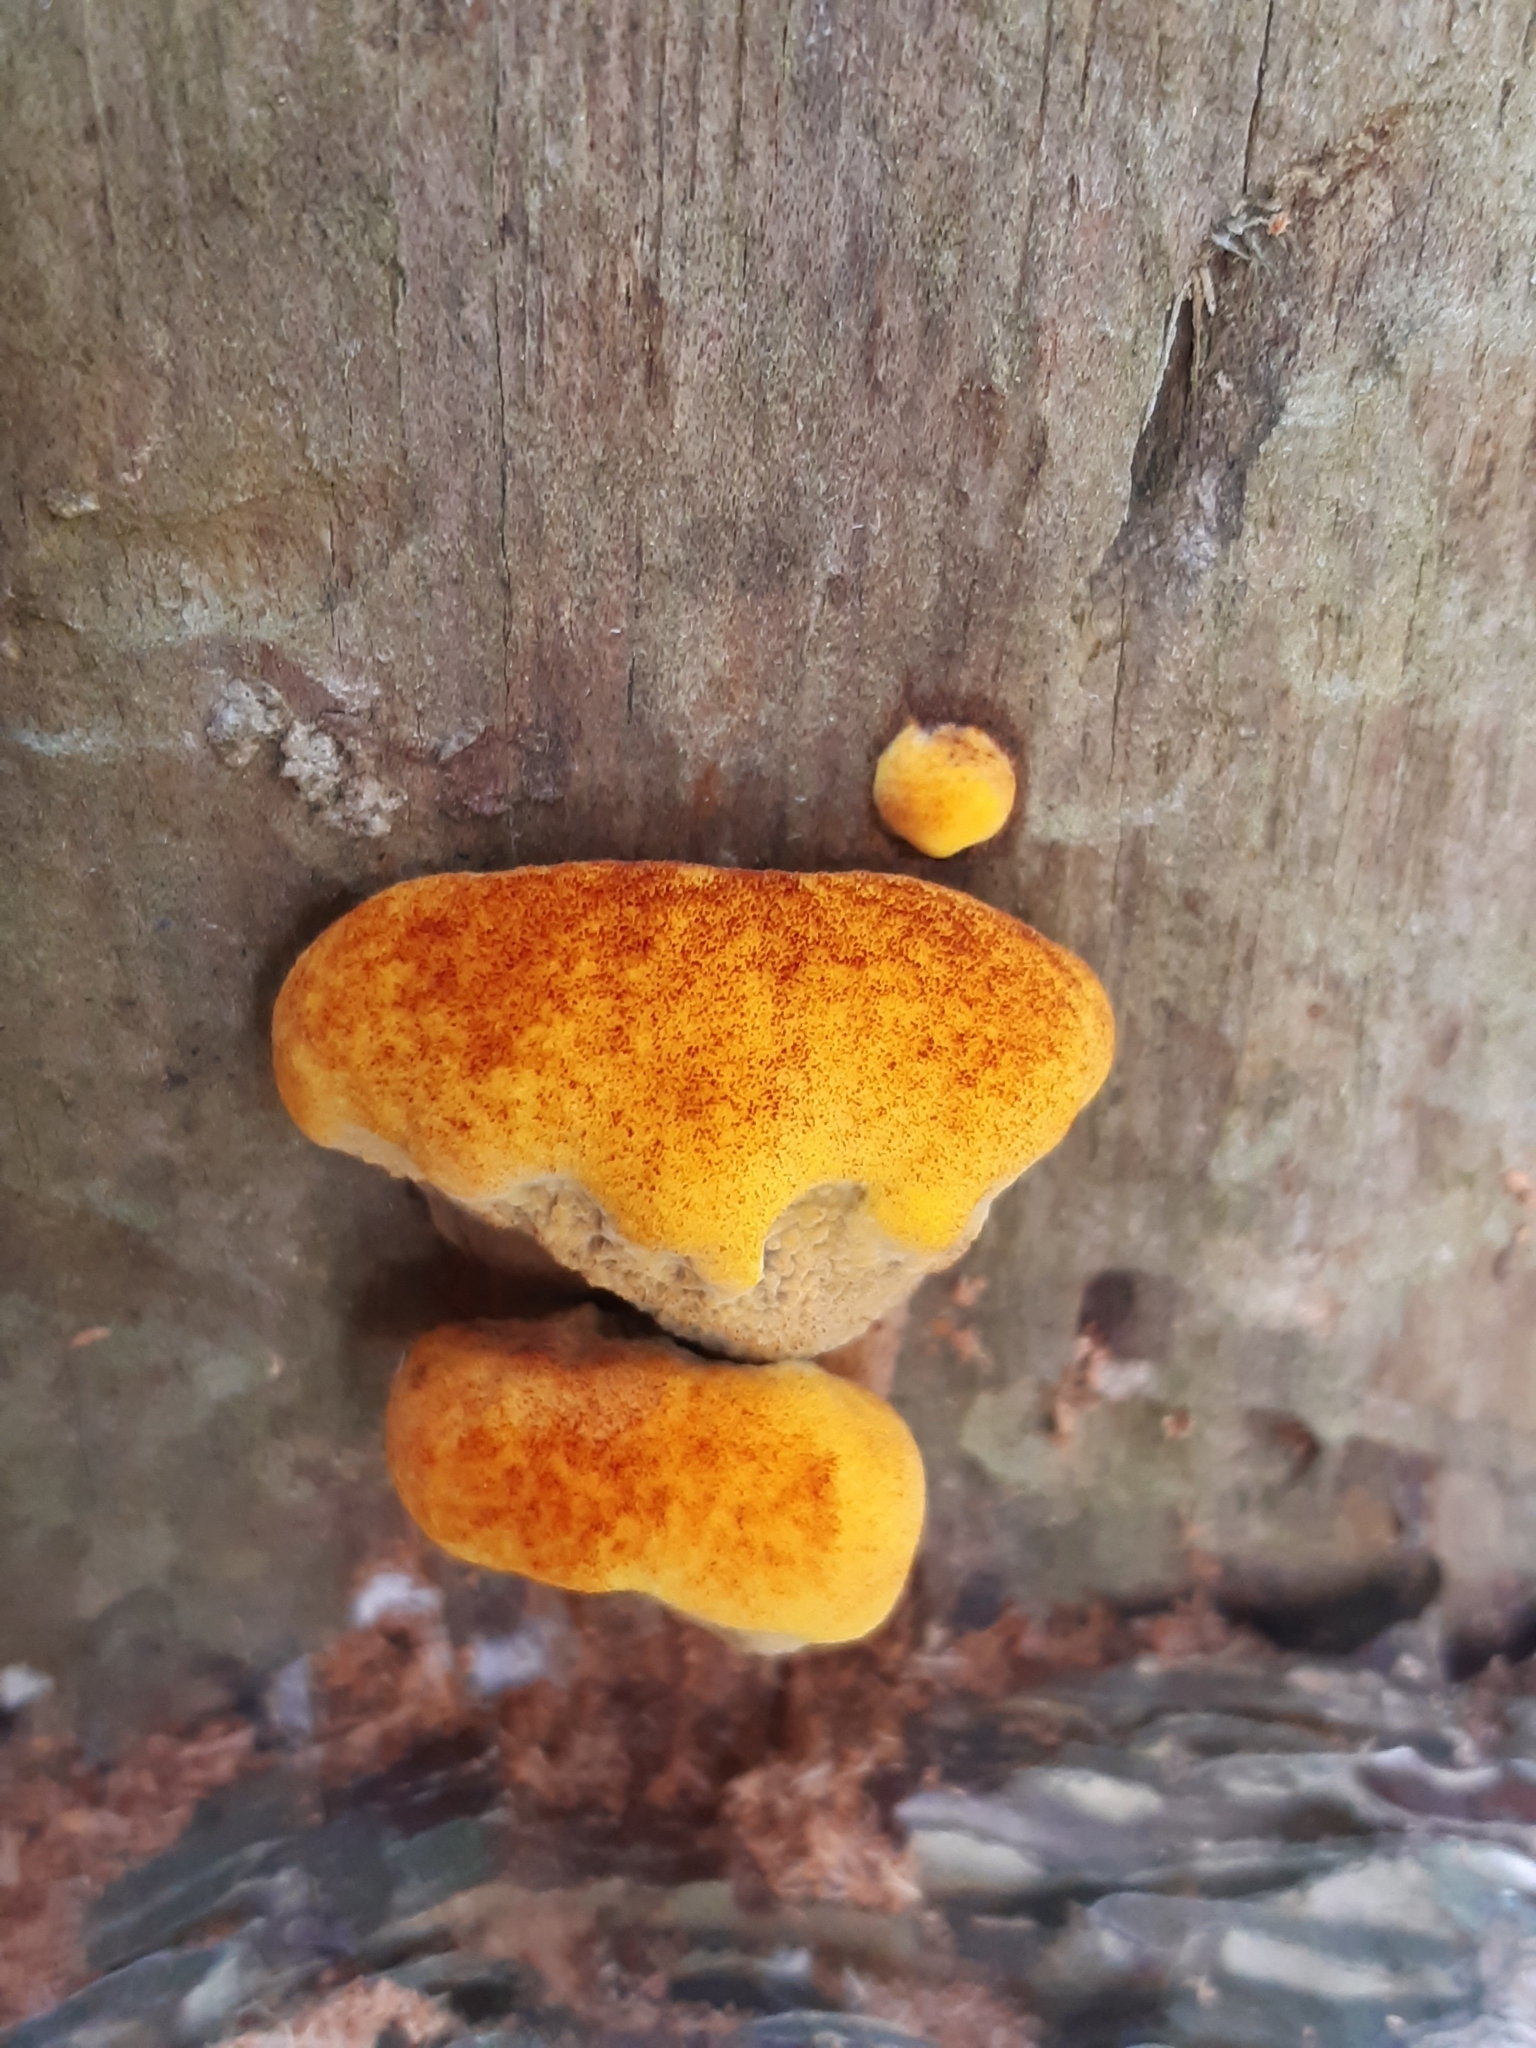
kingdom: Fungi
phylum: Basidiomycota
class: Agaricomycetes
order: Polyporales
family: Laetiporaceae
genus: Phaeolus
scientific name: Phaeolus schweinitzii
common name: Dyer's mazegill
